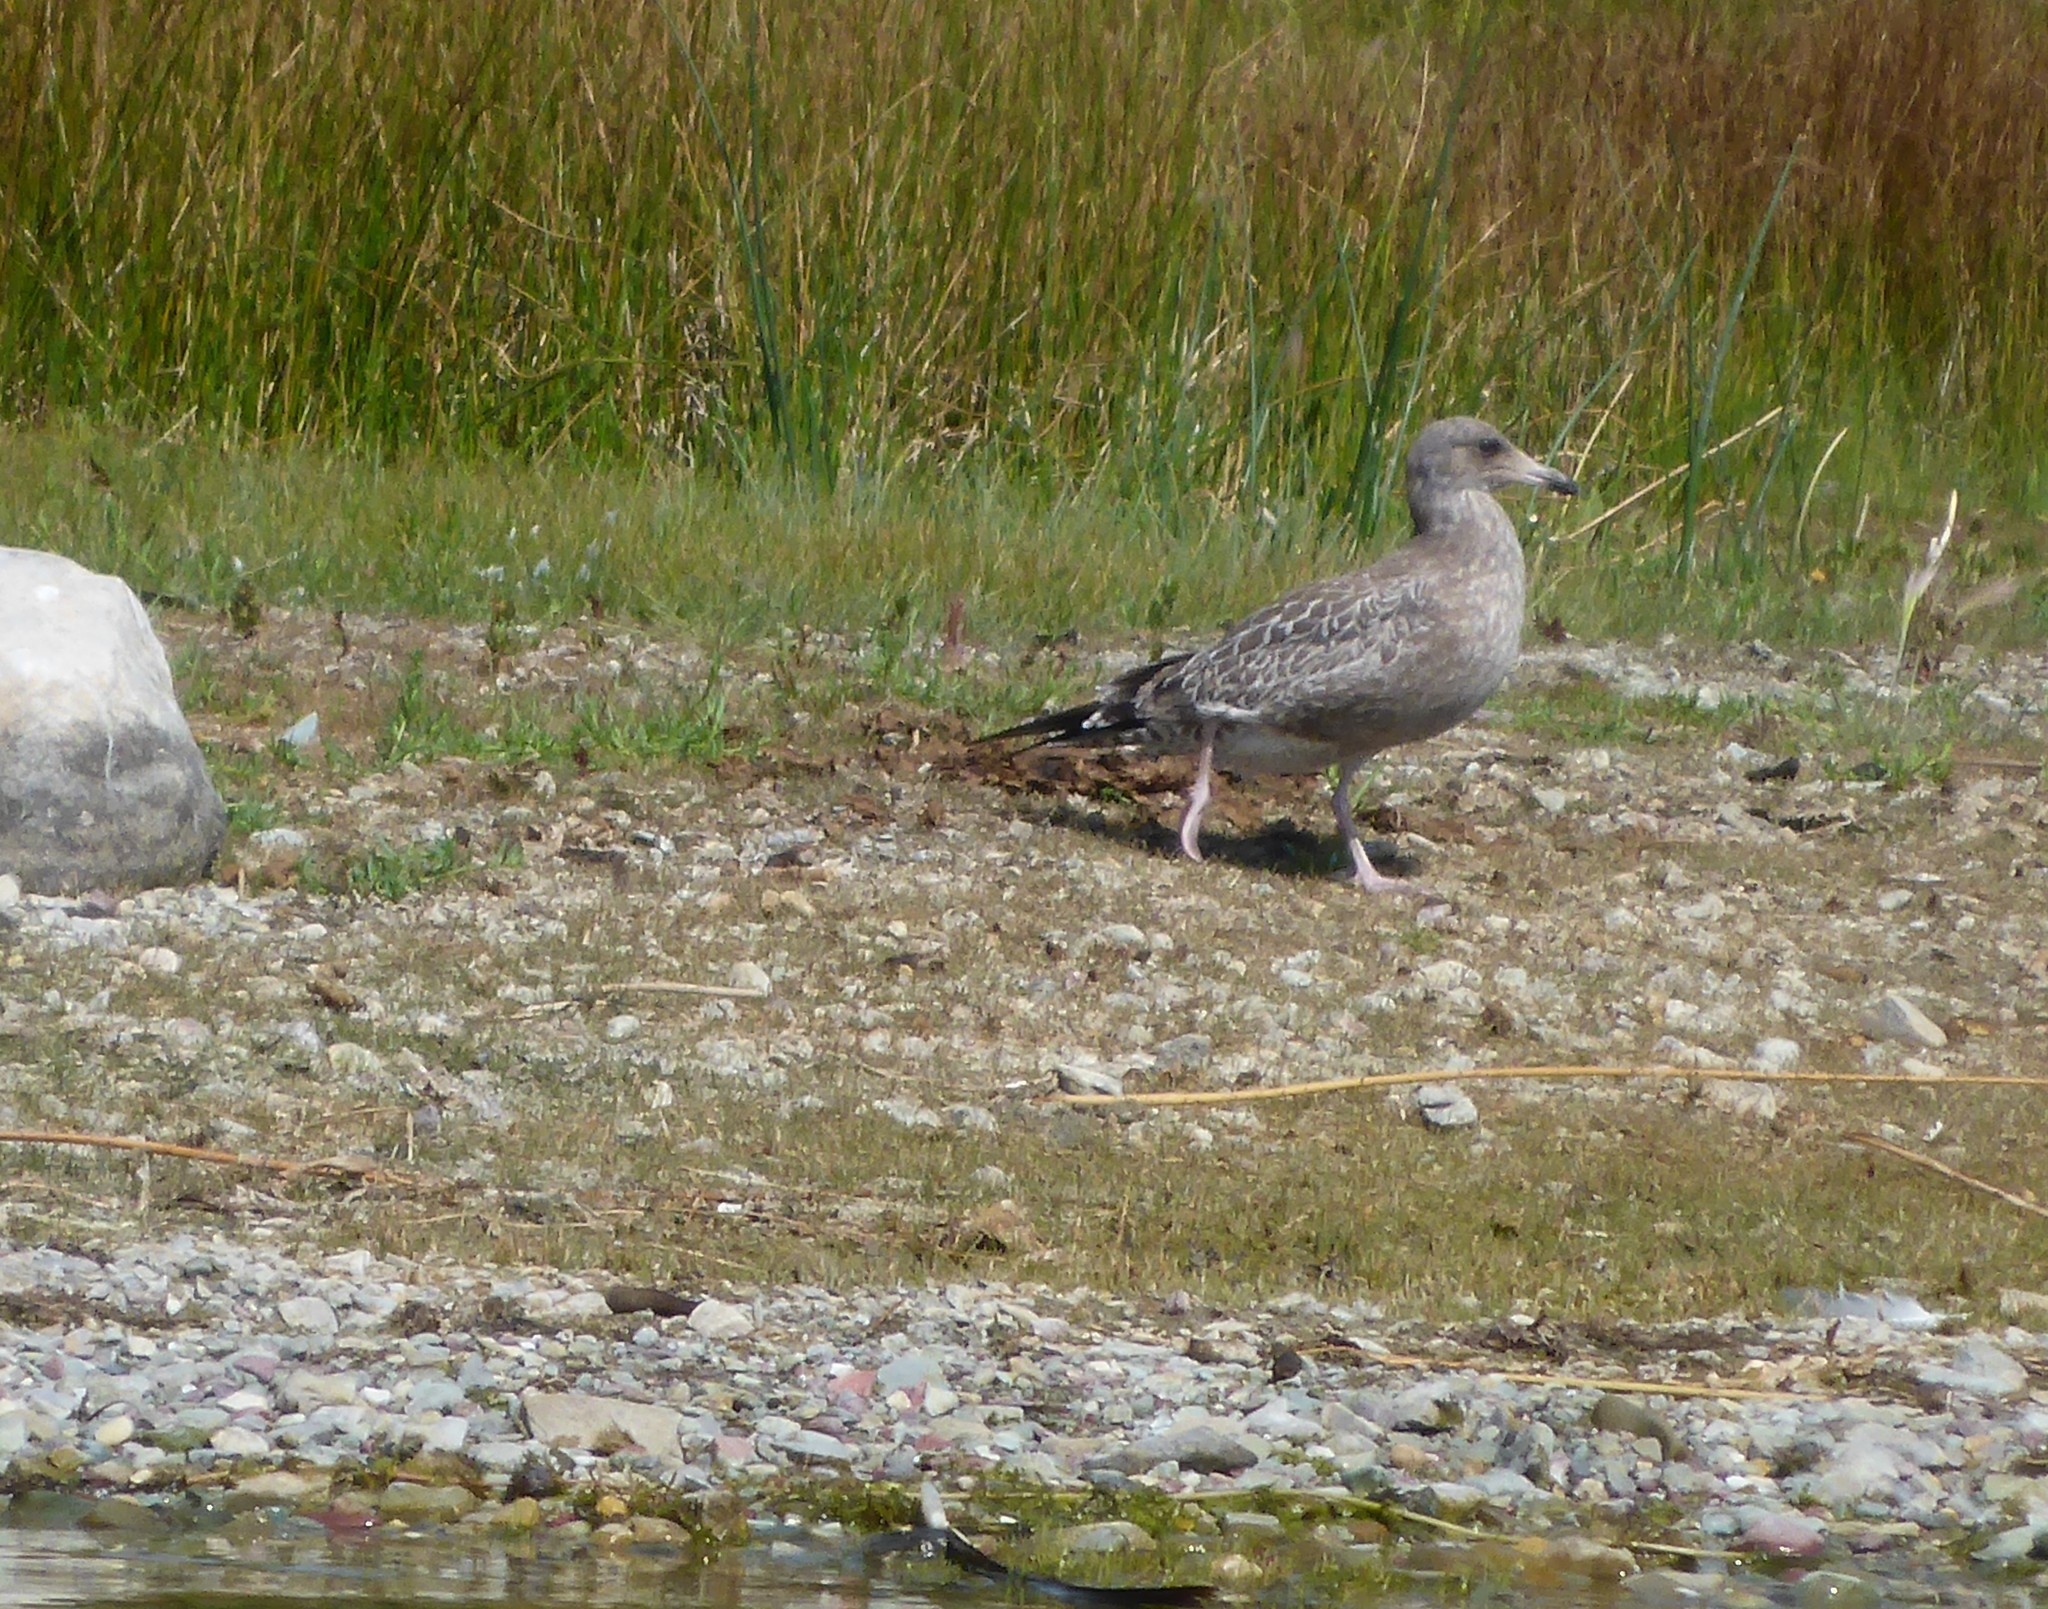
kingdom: Animalia
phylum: Chordata
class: Aves
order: Charadriiformes
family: Laridae
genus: Larus
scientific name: Larus californicus
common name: California gull
